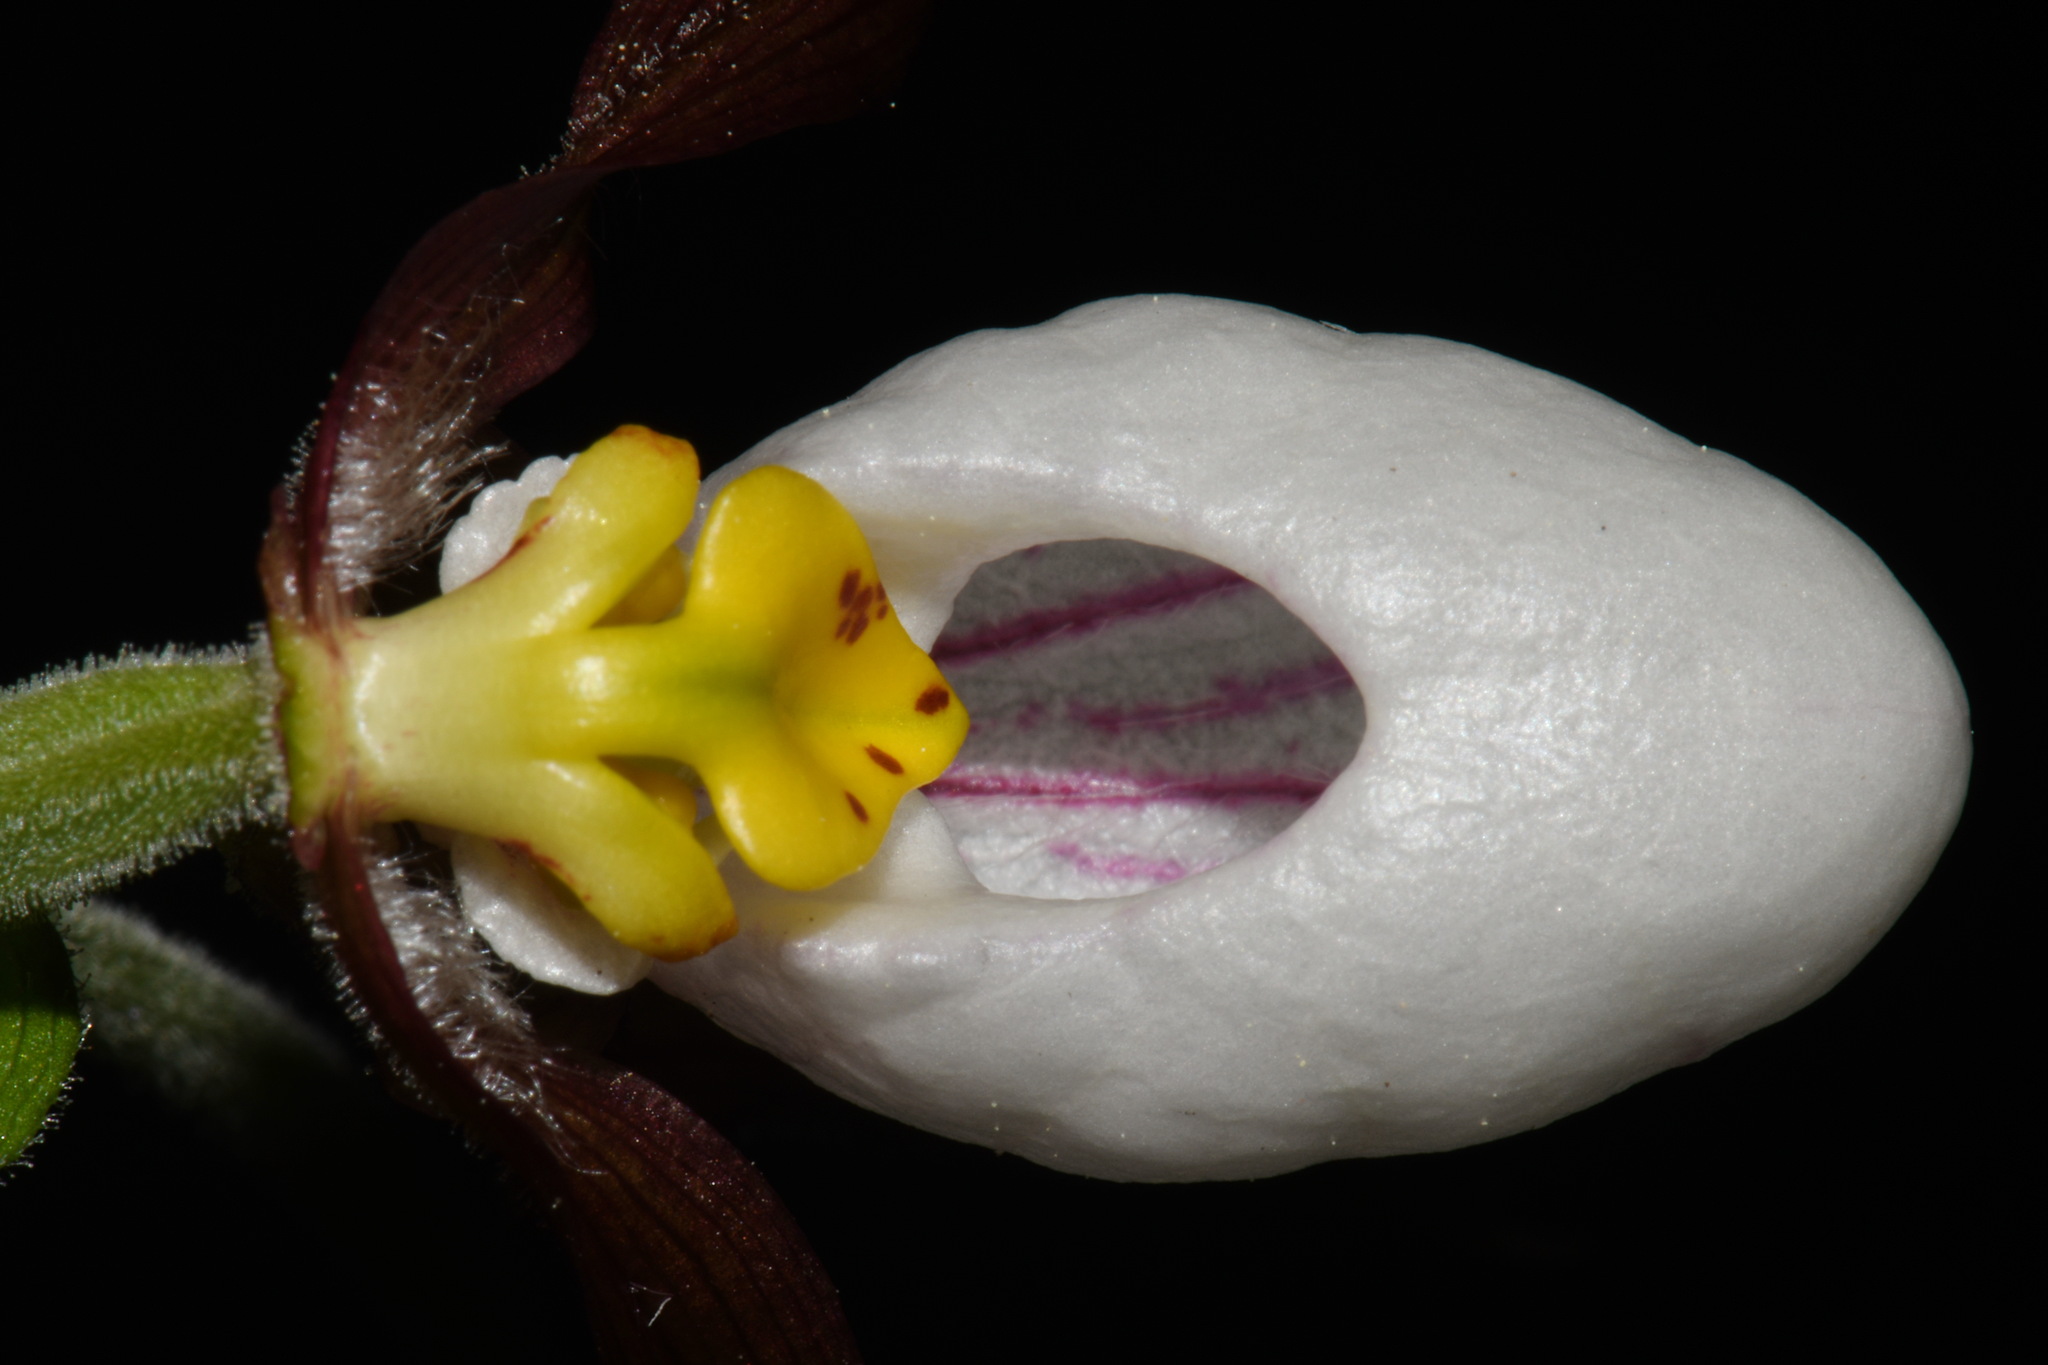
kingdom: Plantae
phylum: Tracheophyta
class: Liliopsida
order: Asparagales
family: Orchidaceae
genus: Cypripedium
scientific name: Cypripedium montanum
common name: Mountain lady's-slipper
